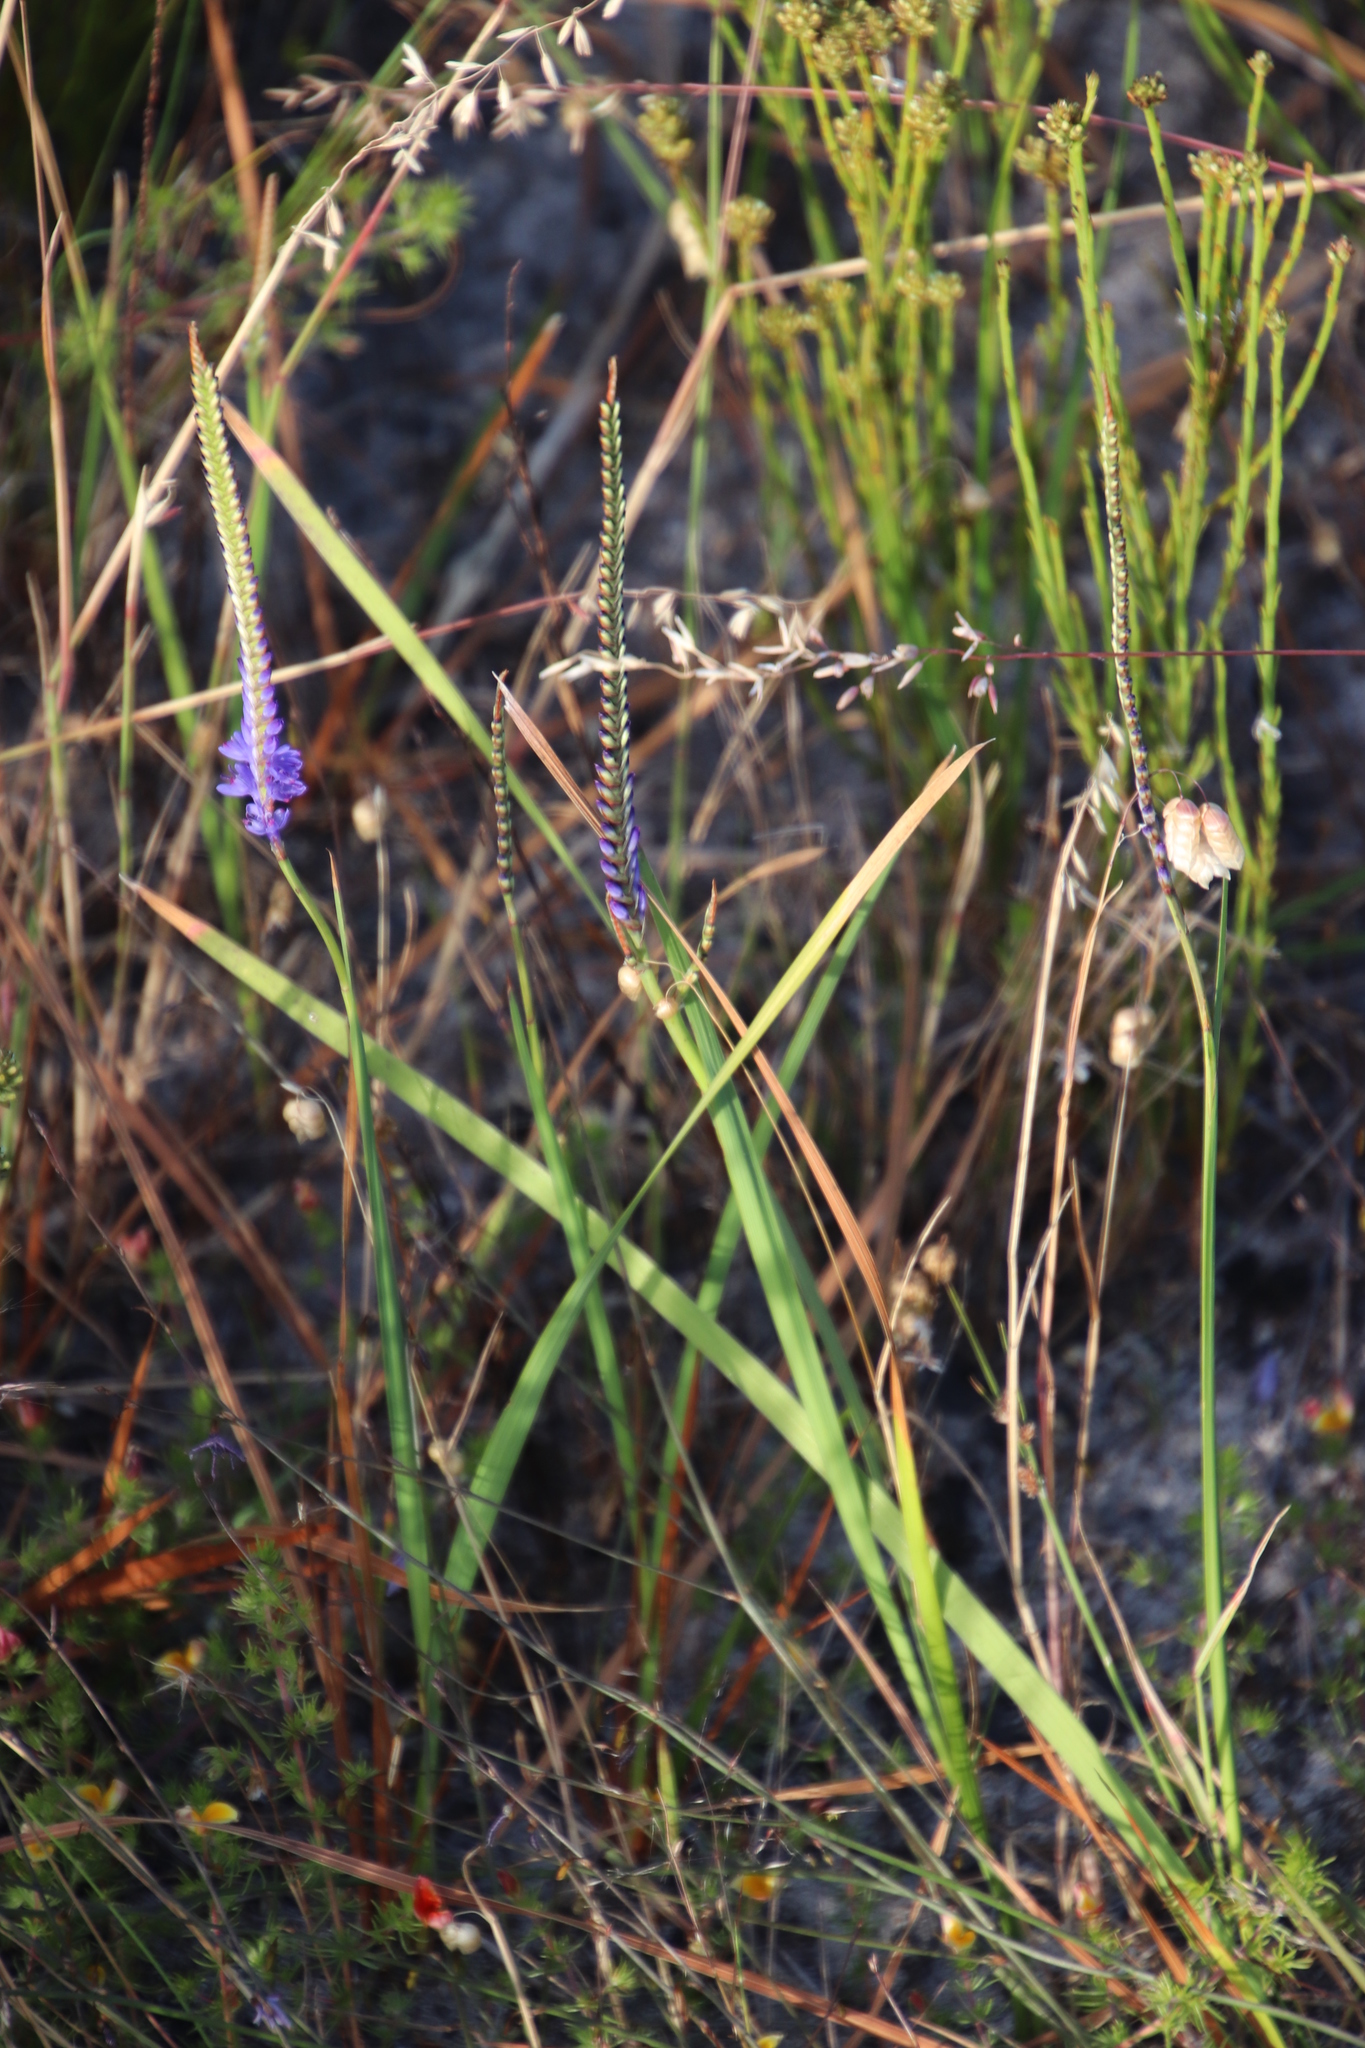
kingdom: Plantae
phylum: Tracheophyta
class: Liliopsida
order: Asparagales
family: Iridaceae
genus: Micranthus
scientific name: Micranthus alopecuroides
